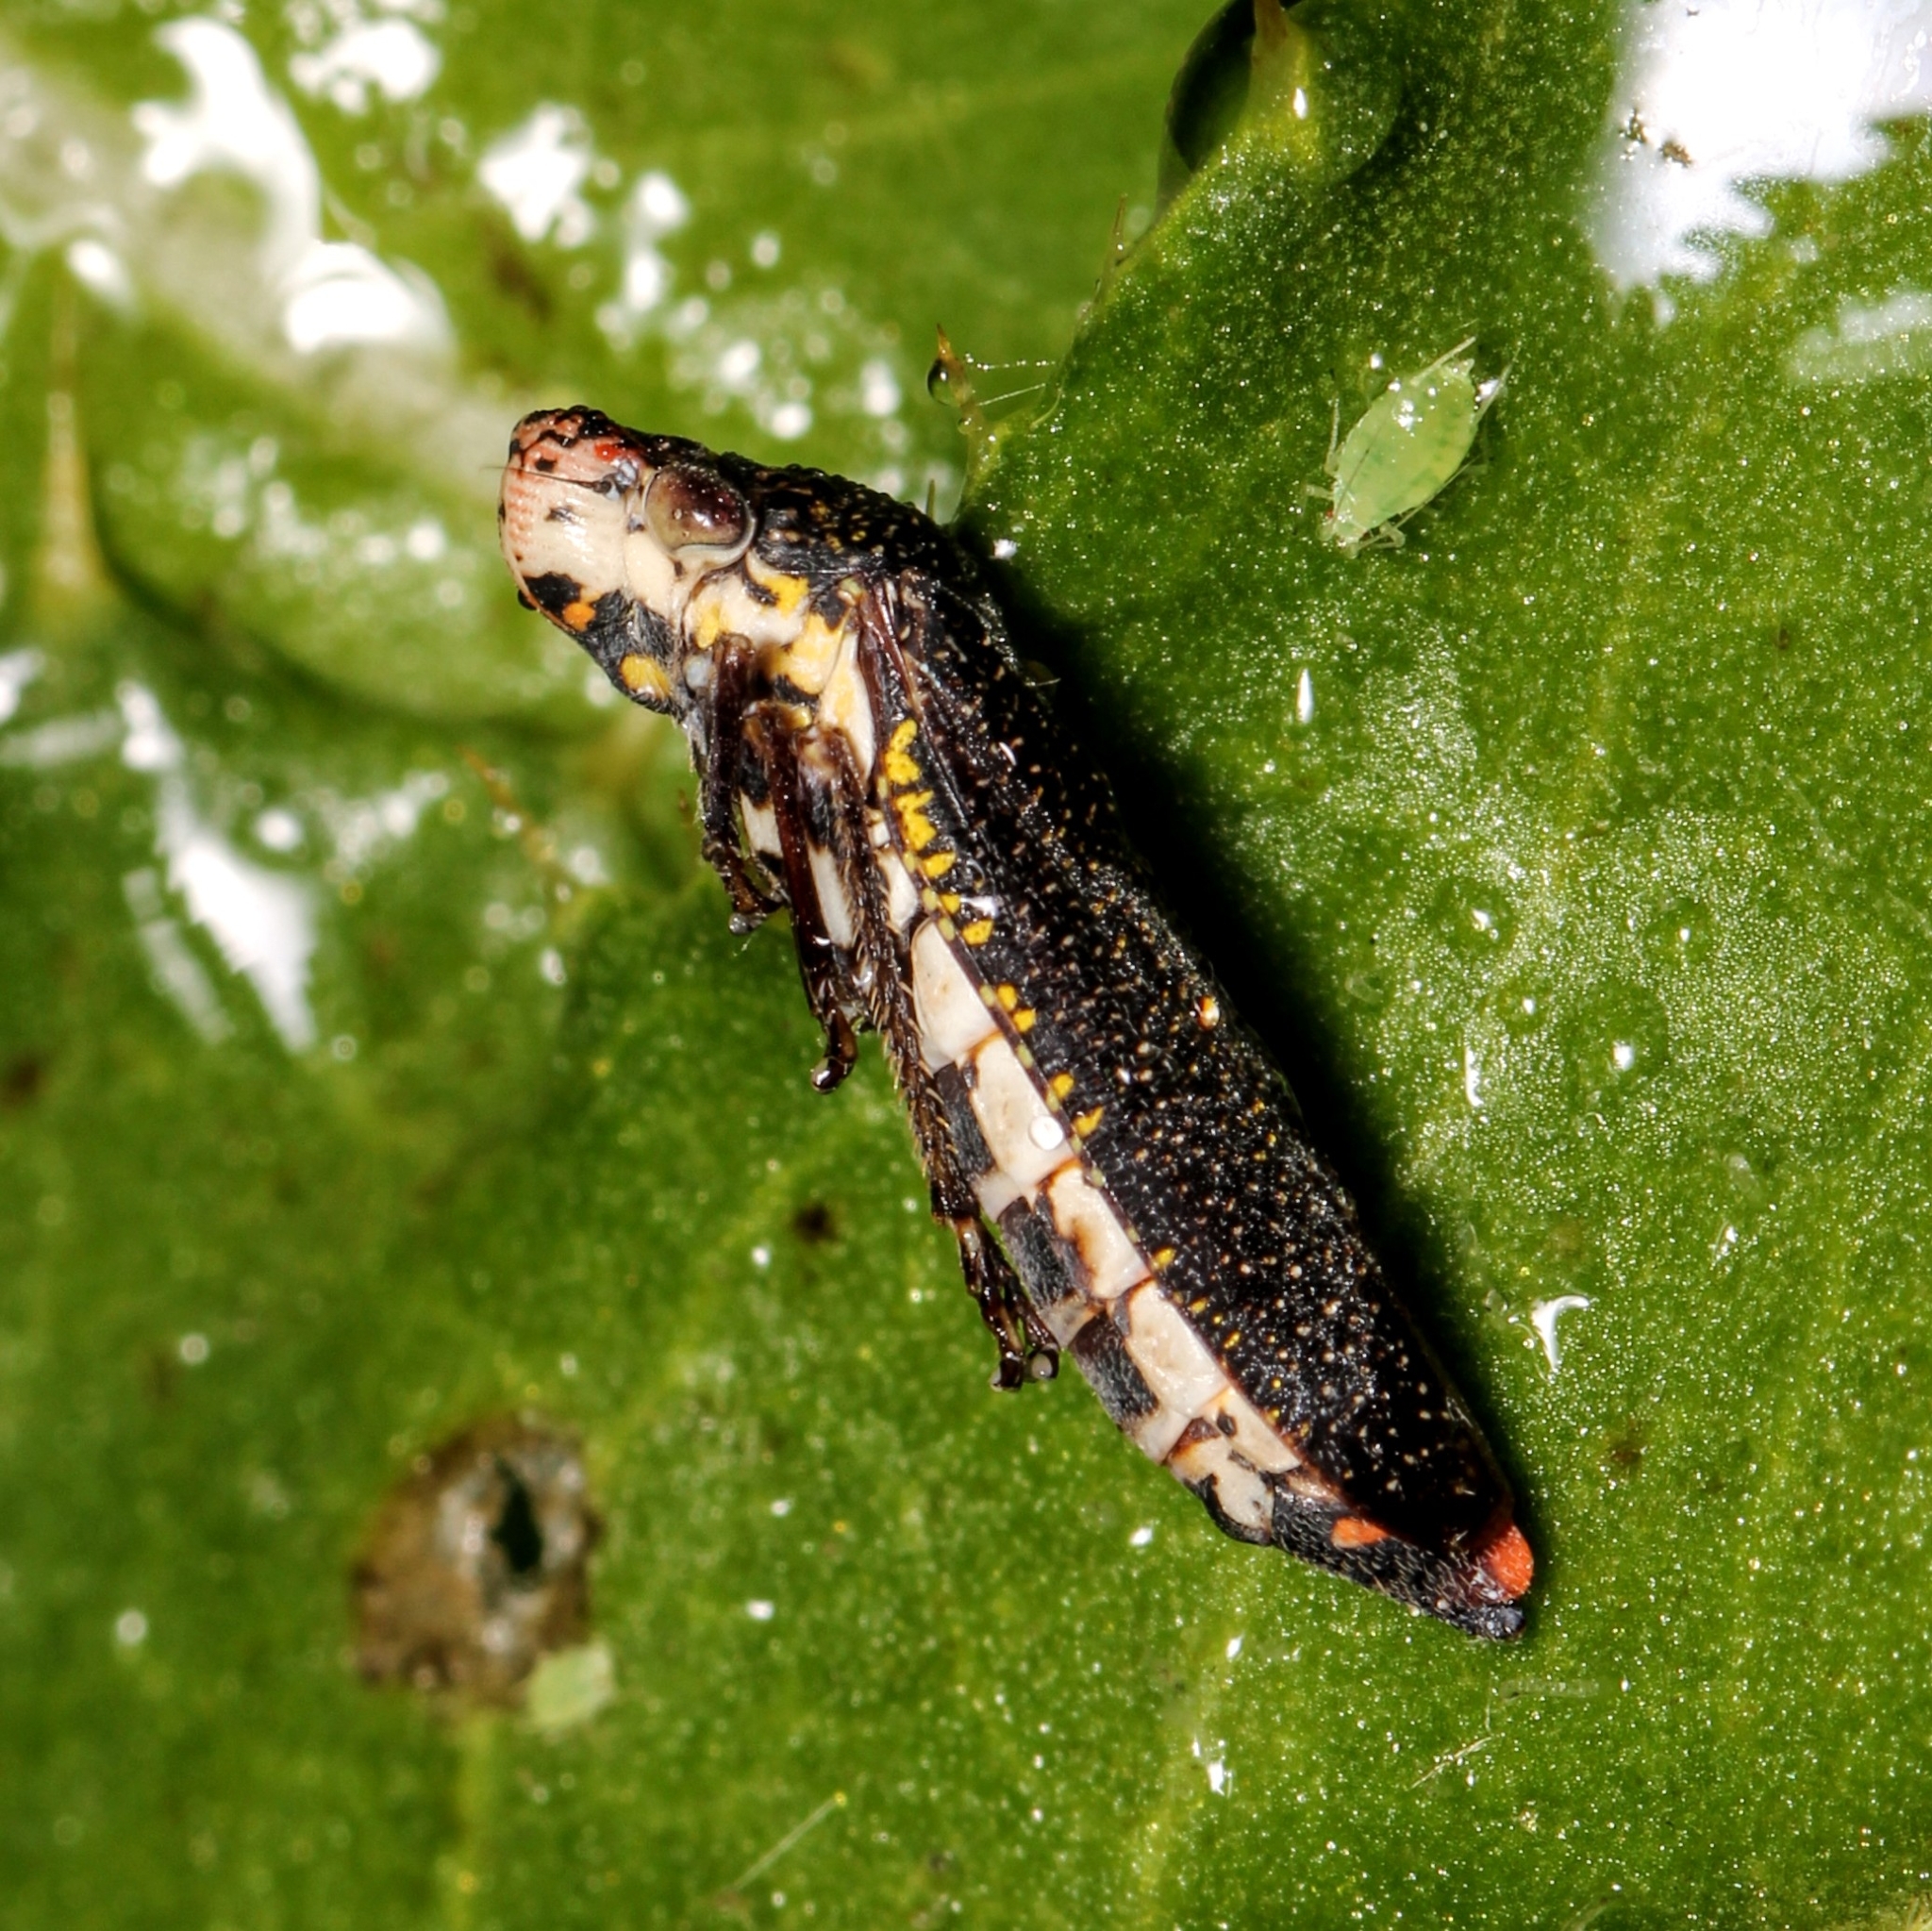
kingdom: Animalia
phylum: Arthropoda
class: Insecta
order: Hemiptera
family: Cicadellidae
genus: Paraulacizes
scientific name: Paraulacizes irrorata
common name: Speckled sharpshooter
